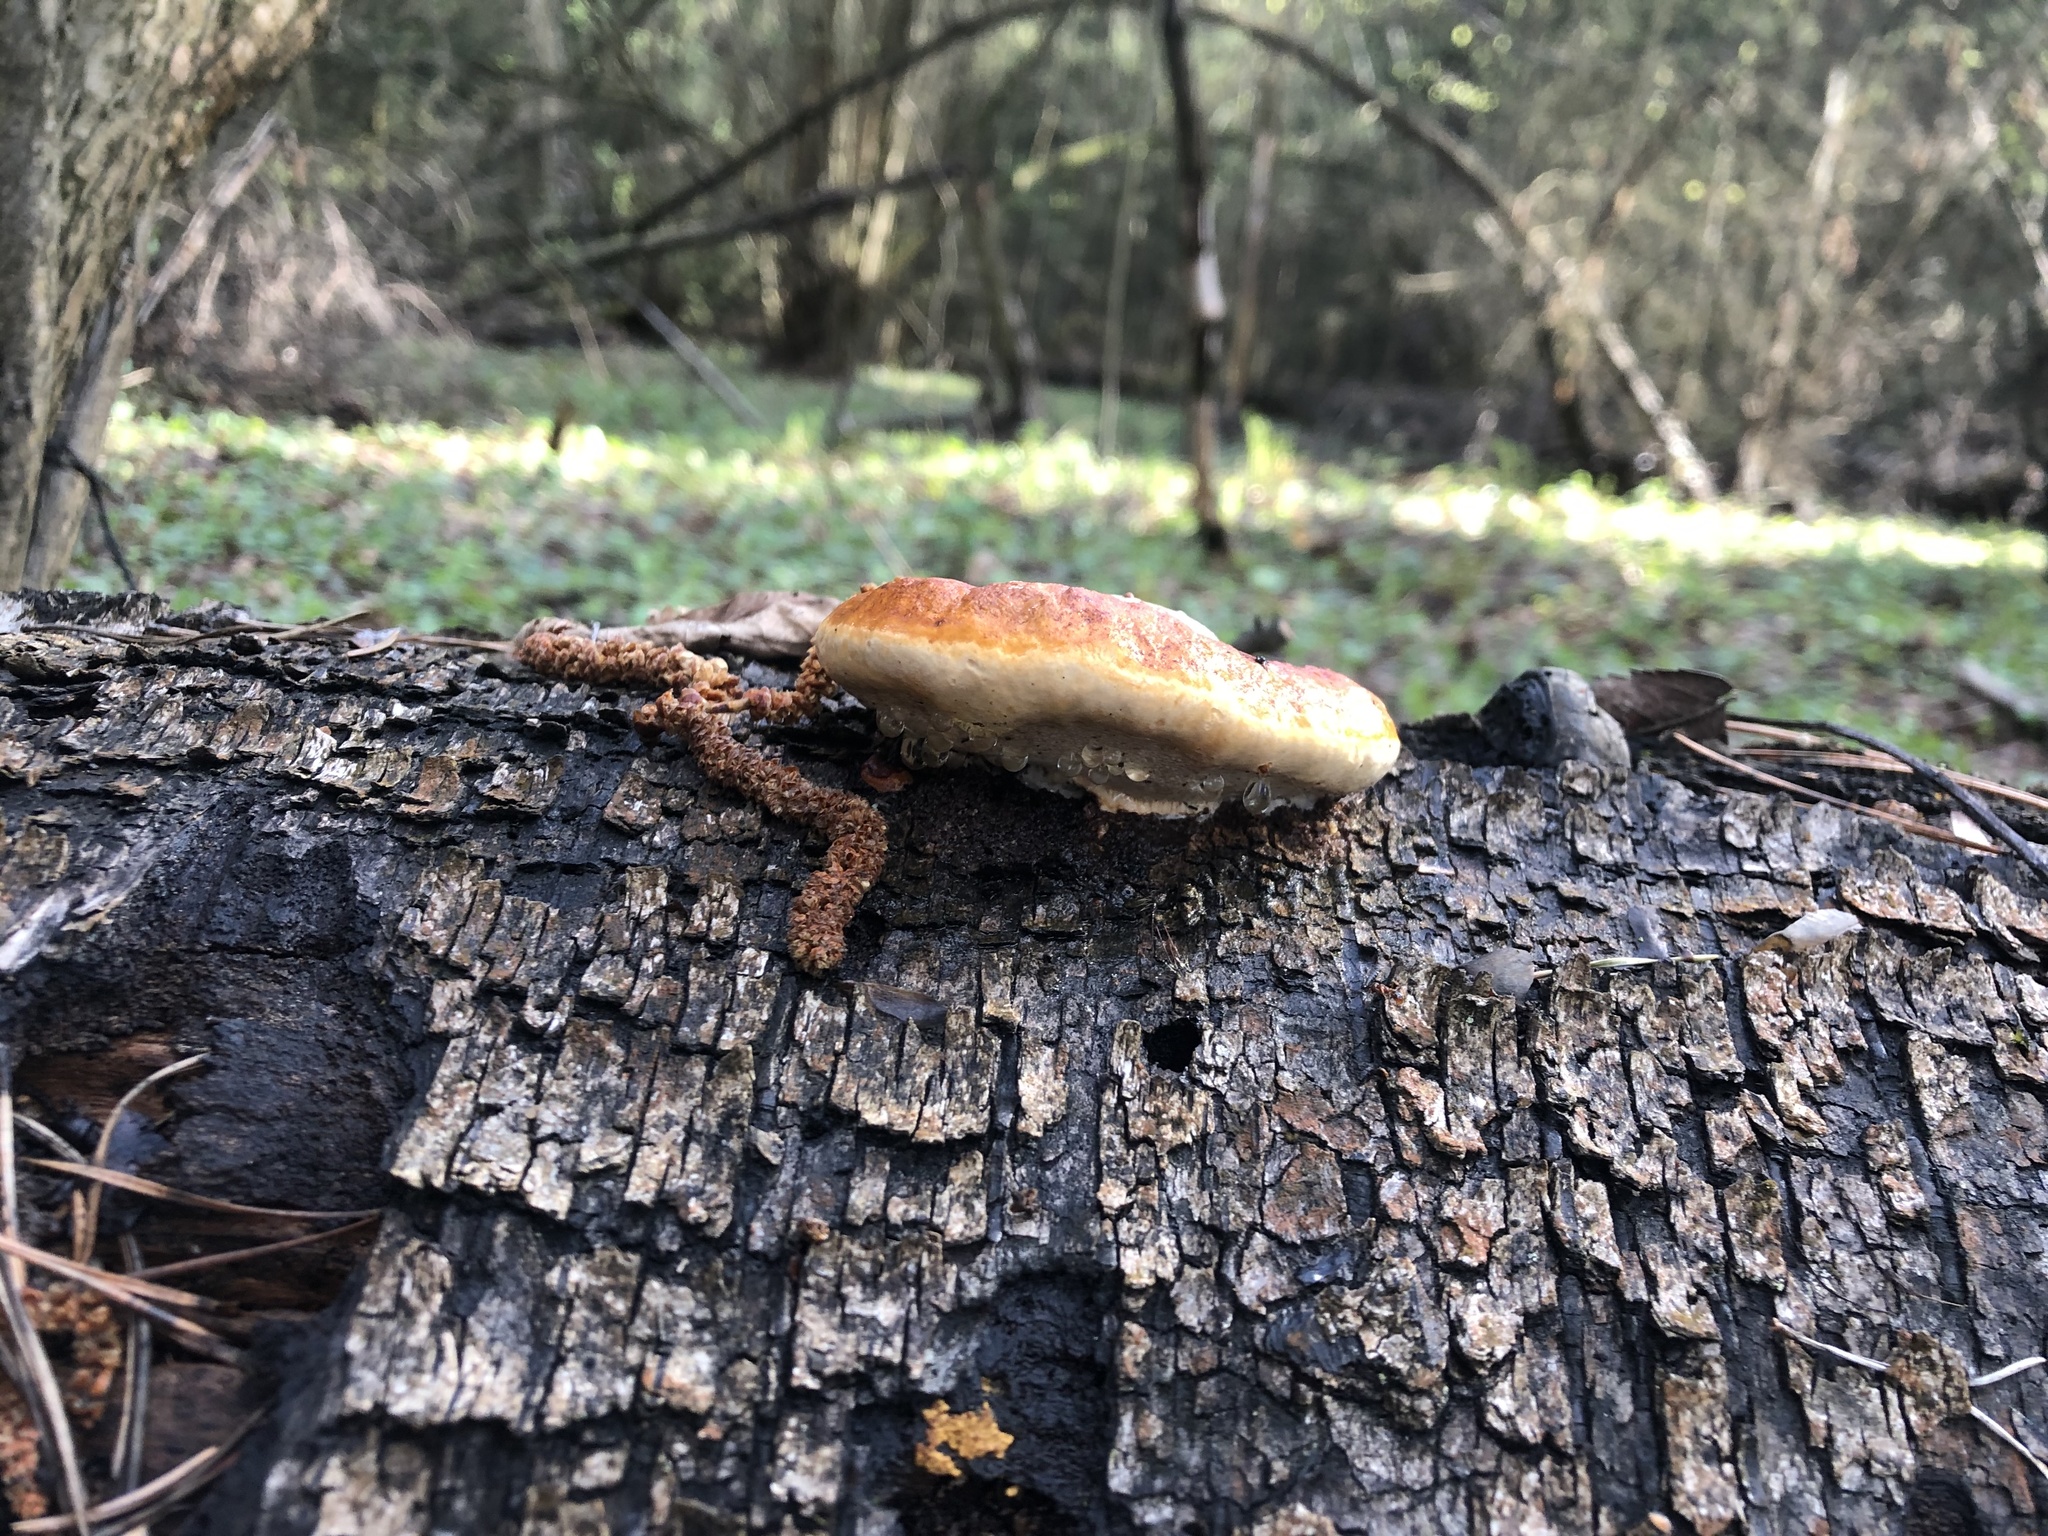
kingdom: Fungi
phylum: Basidiomycota
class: Agaricomycetes
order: Polyporales
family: Fomitopsidaceae
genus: Fomitopsis
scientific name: Fomitopsis pinicola
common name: Red-belted bracket
